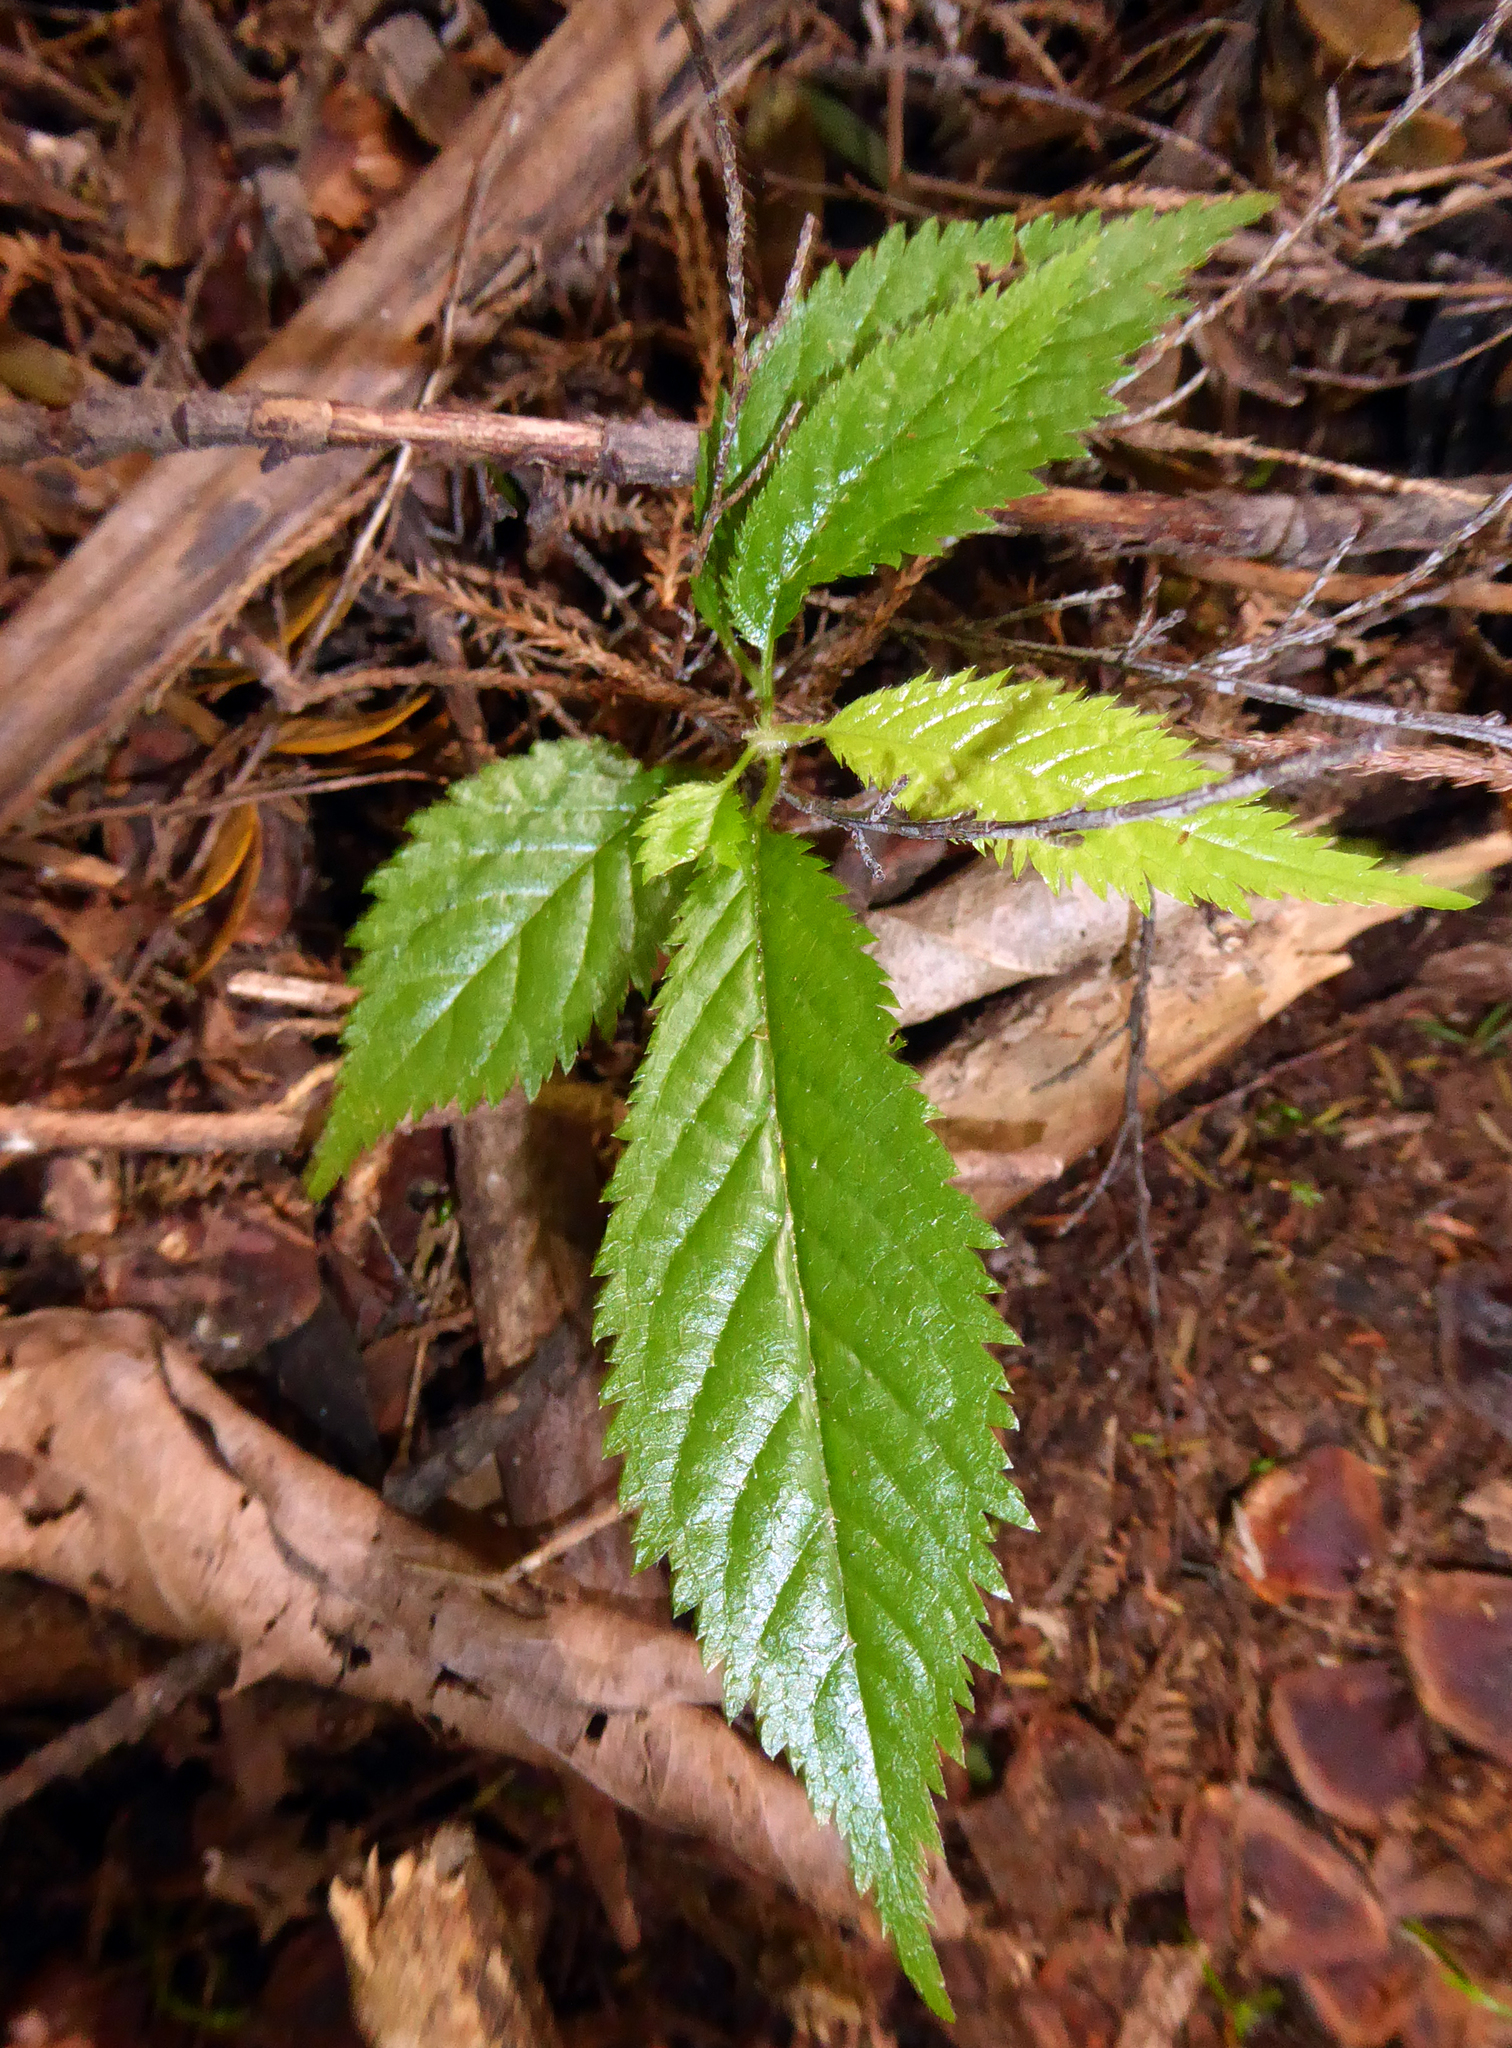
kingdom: Plantae
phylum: Tracheophyta
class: Magnoliopsida
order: Rosales
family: Rosaceae
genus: Prunus
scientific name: Prunus serrulata
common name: Japanese cherry
